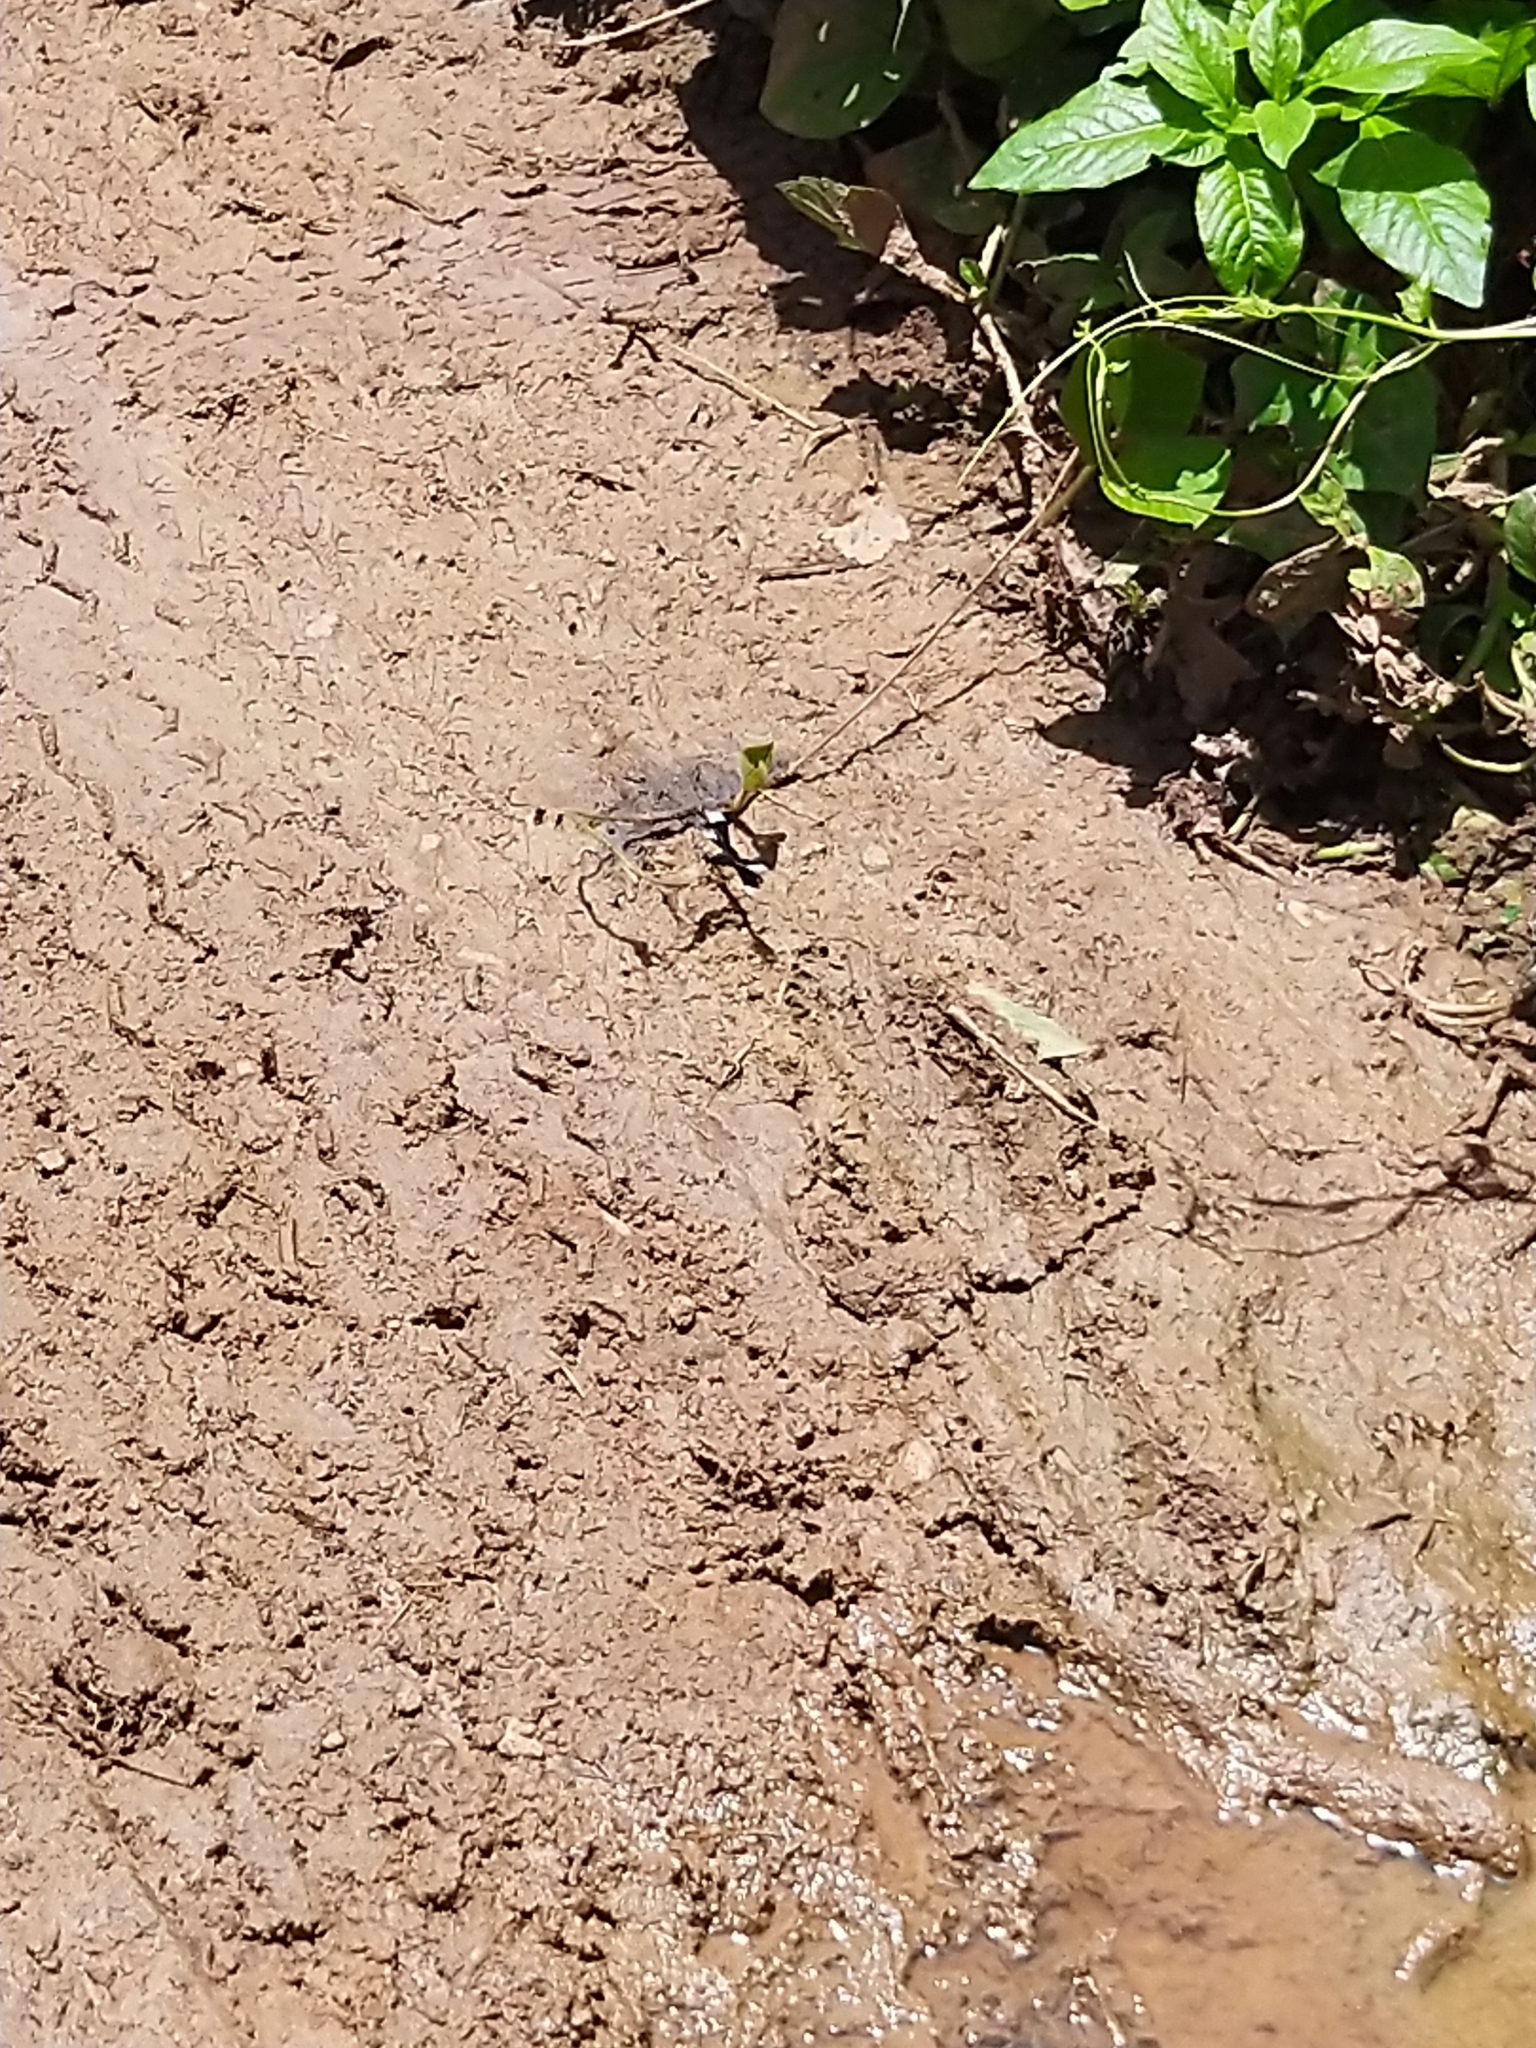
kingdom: Animalia
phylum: Arthropoda
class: Insecta
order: Odonata
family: Libellulidae
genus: Neurothemis
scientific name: Neurothemis tullia
